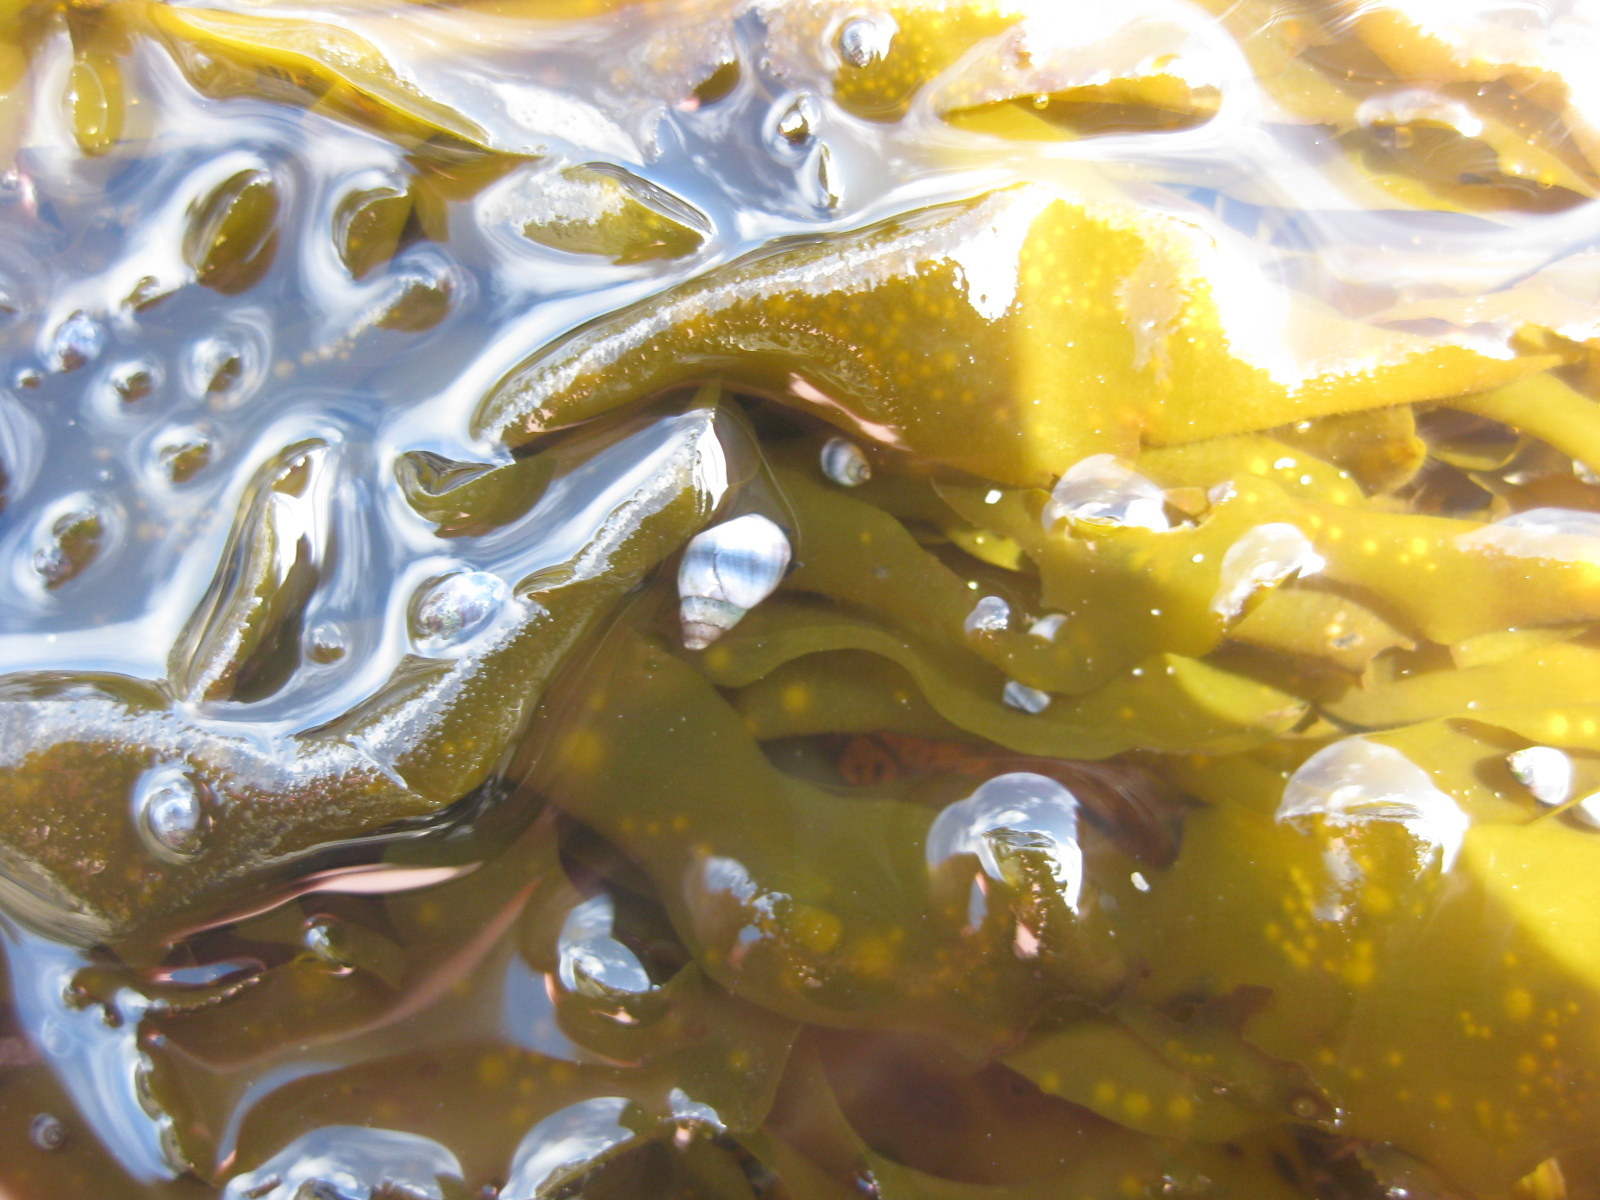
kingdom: Animalia
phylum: Mollusca
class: Gastropoda
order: Littorinimorpha
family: Littorinidae
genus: Austrolittorina
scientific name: Austrolittorina antipodum
